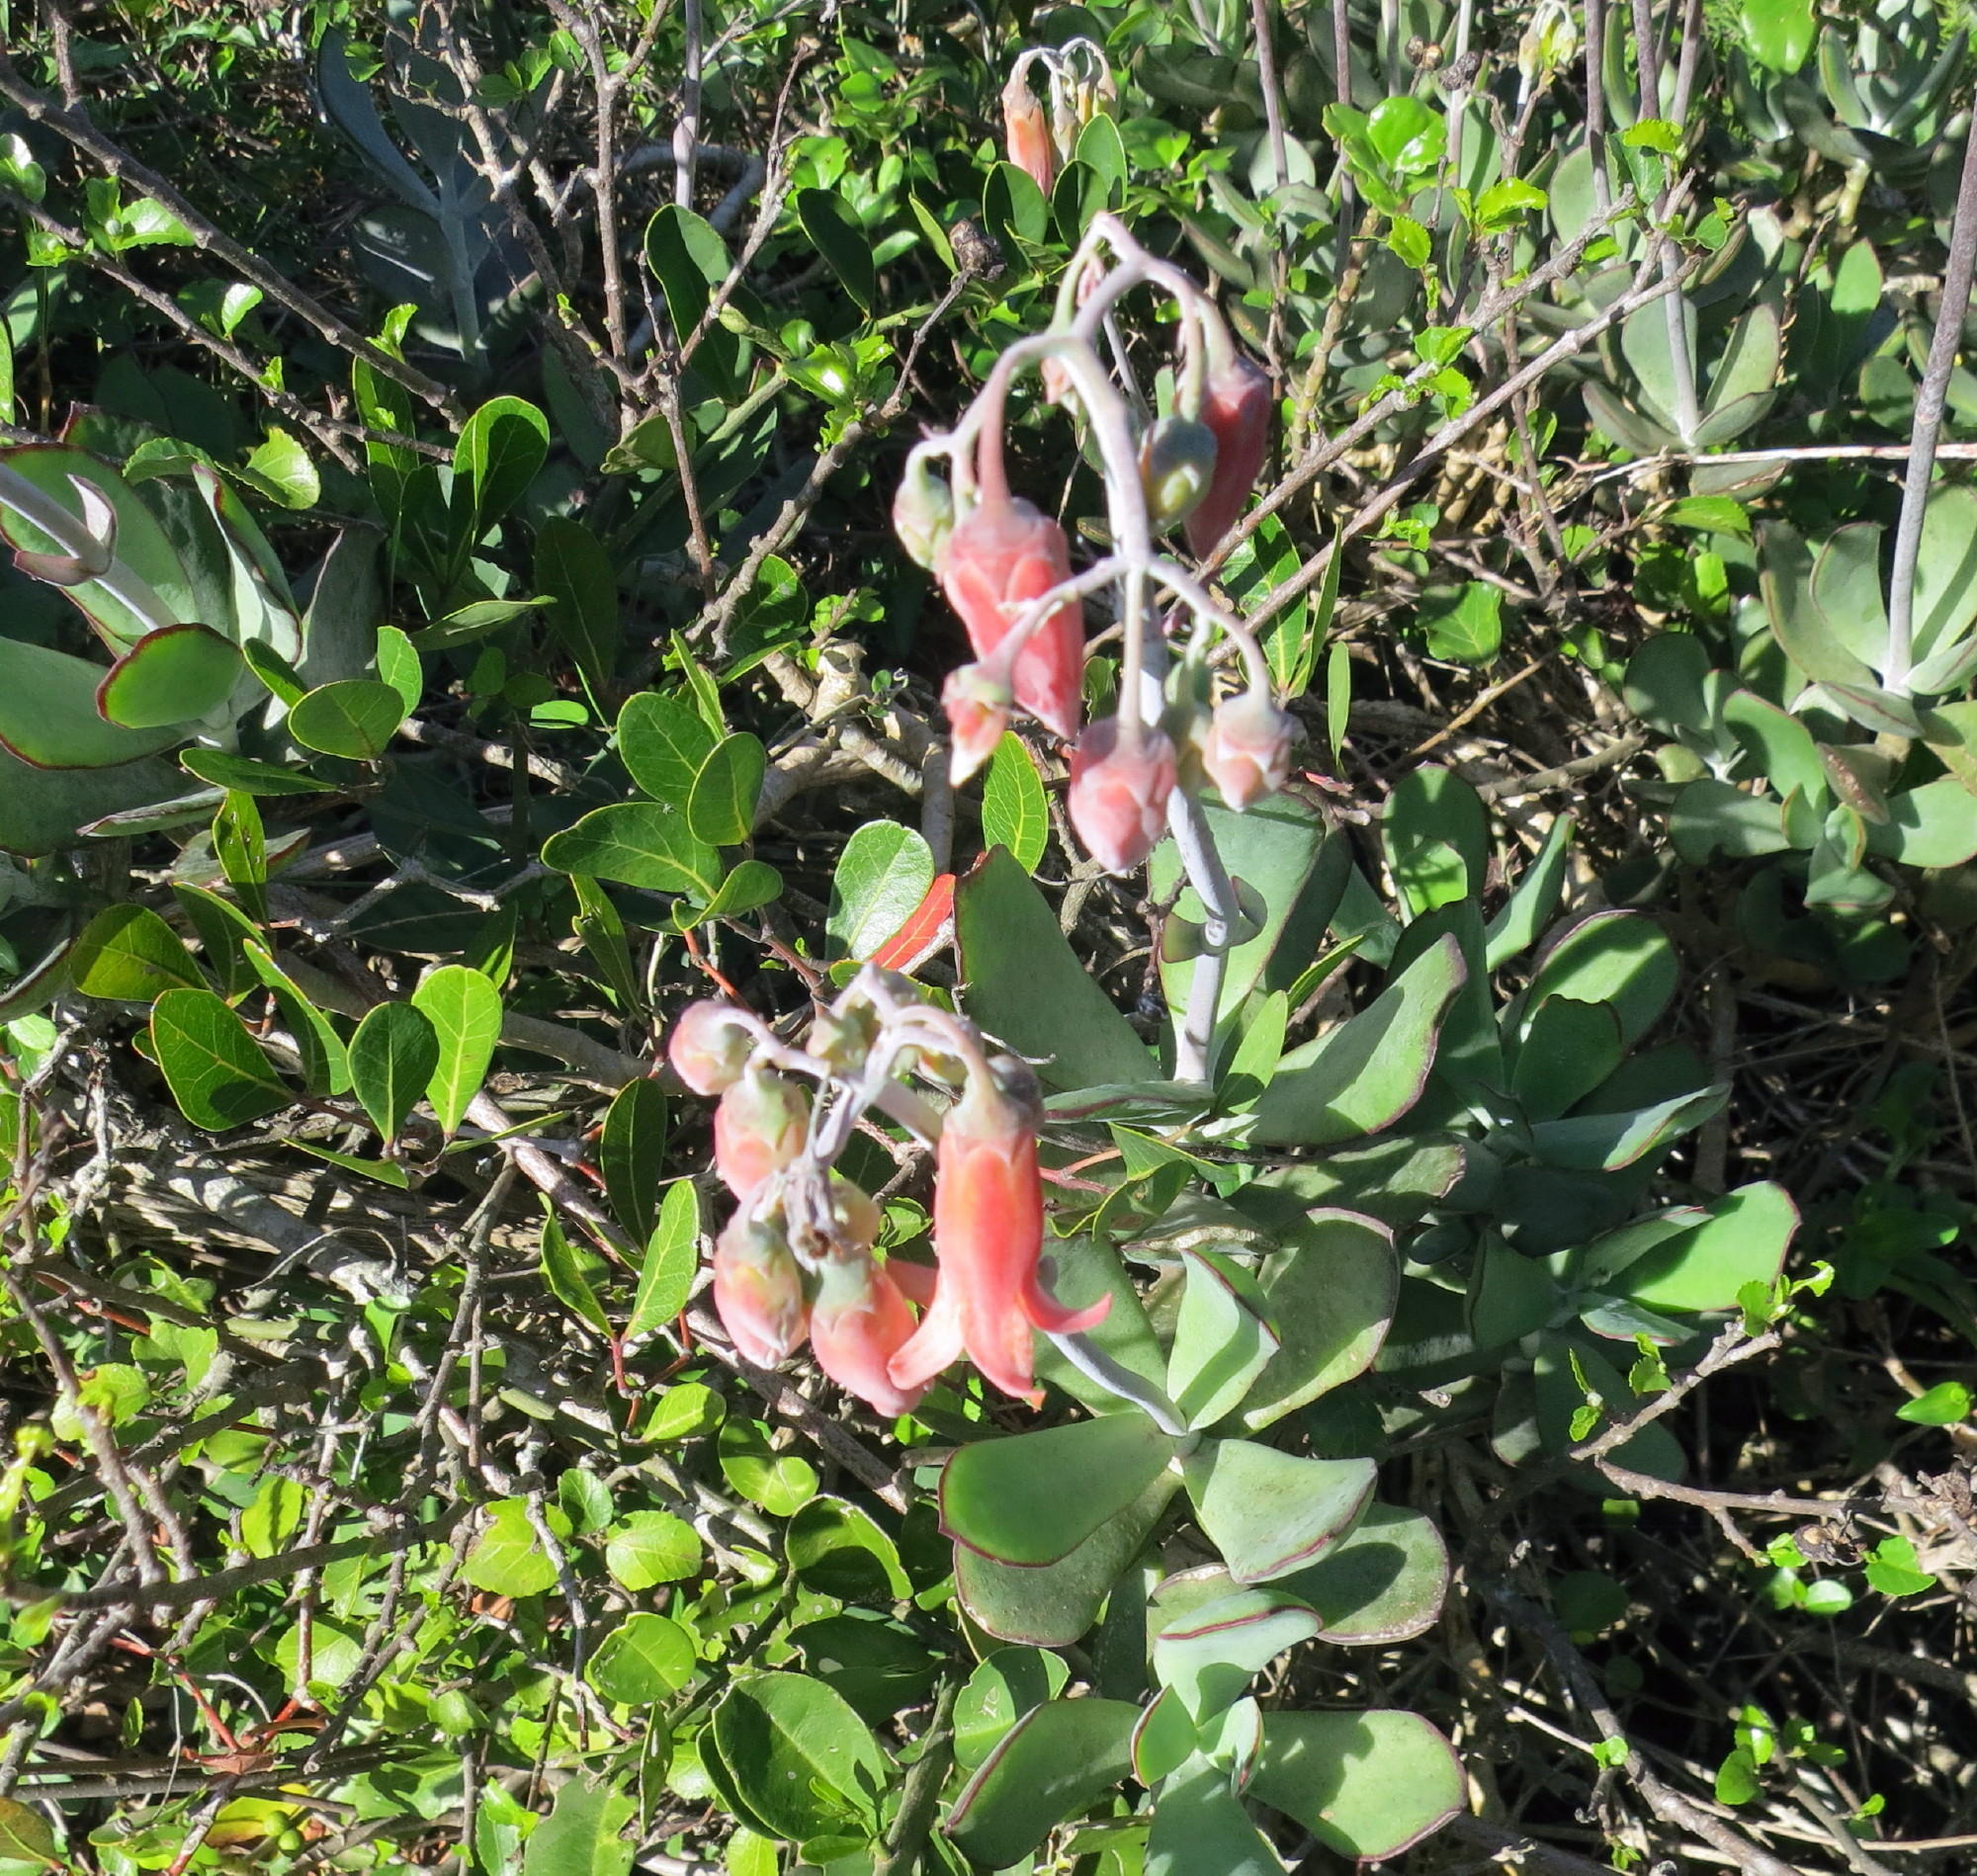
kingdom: Plantae
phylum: Tracheophyta
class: Magnoliopsida
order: Saxifragales
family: Crassulaceae
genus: Cotyledon
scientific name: Cotyledon orbiculata
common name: Pig's ear
